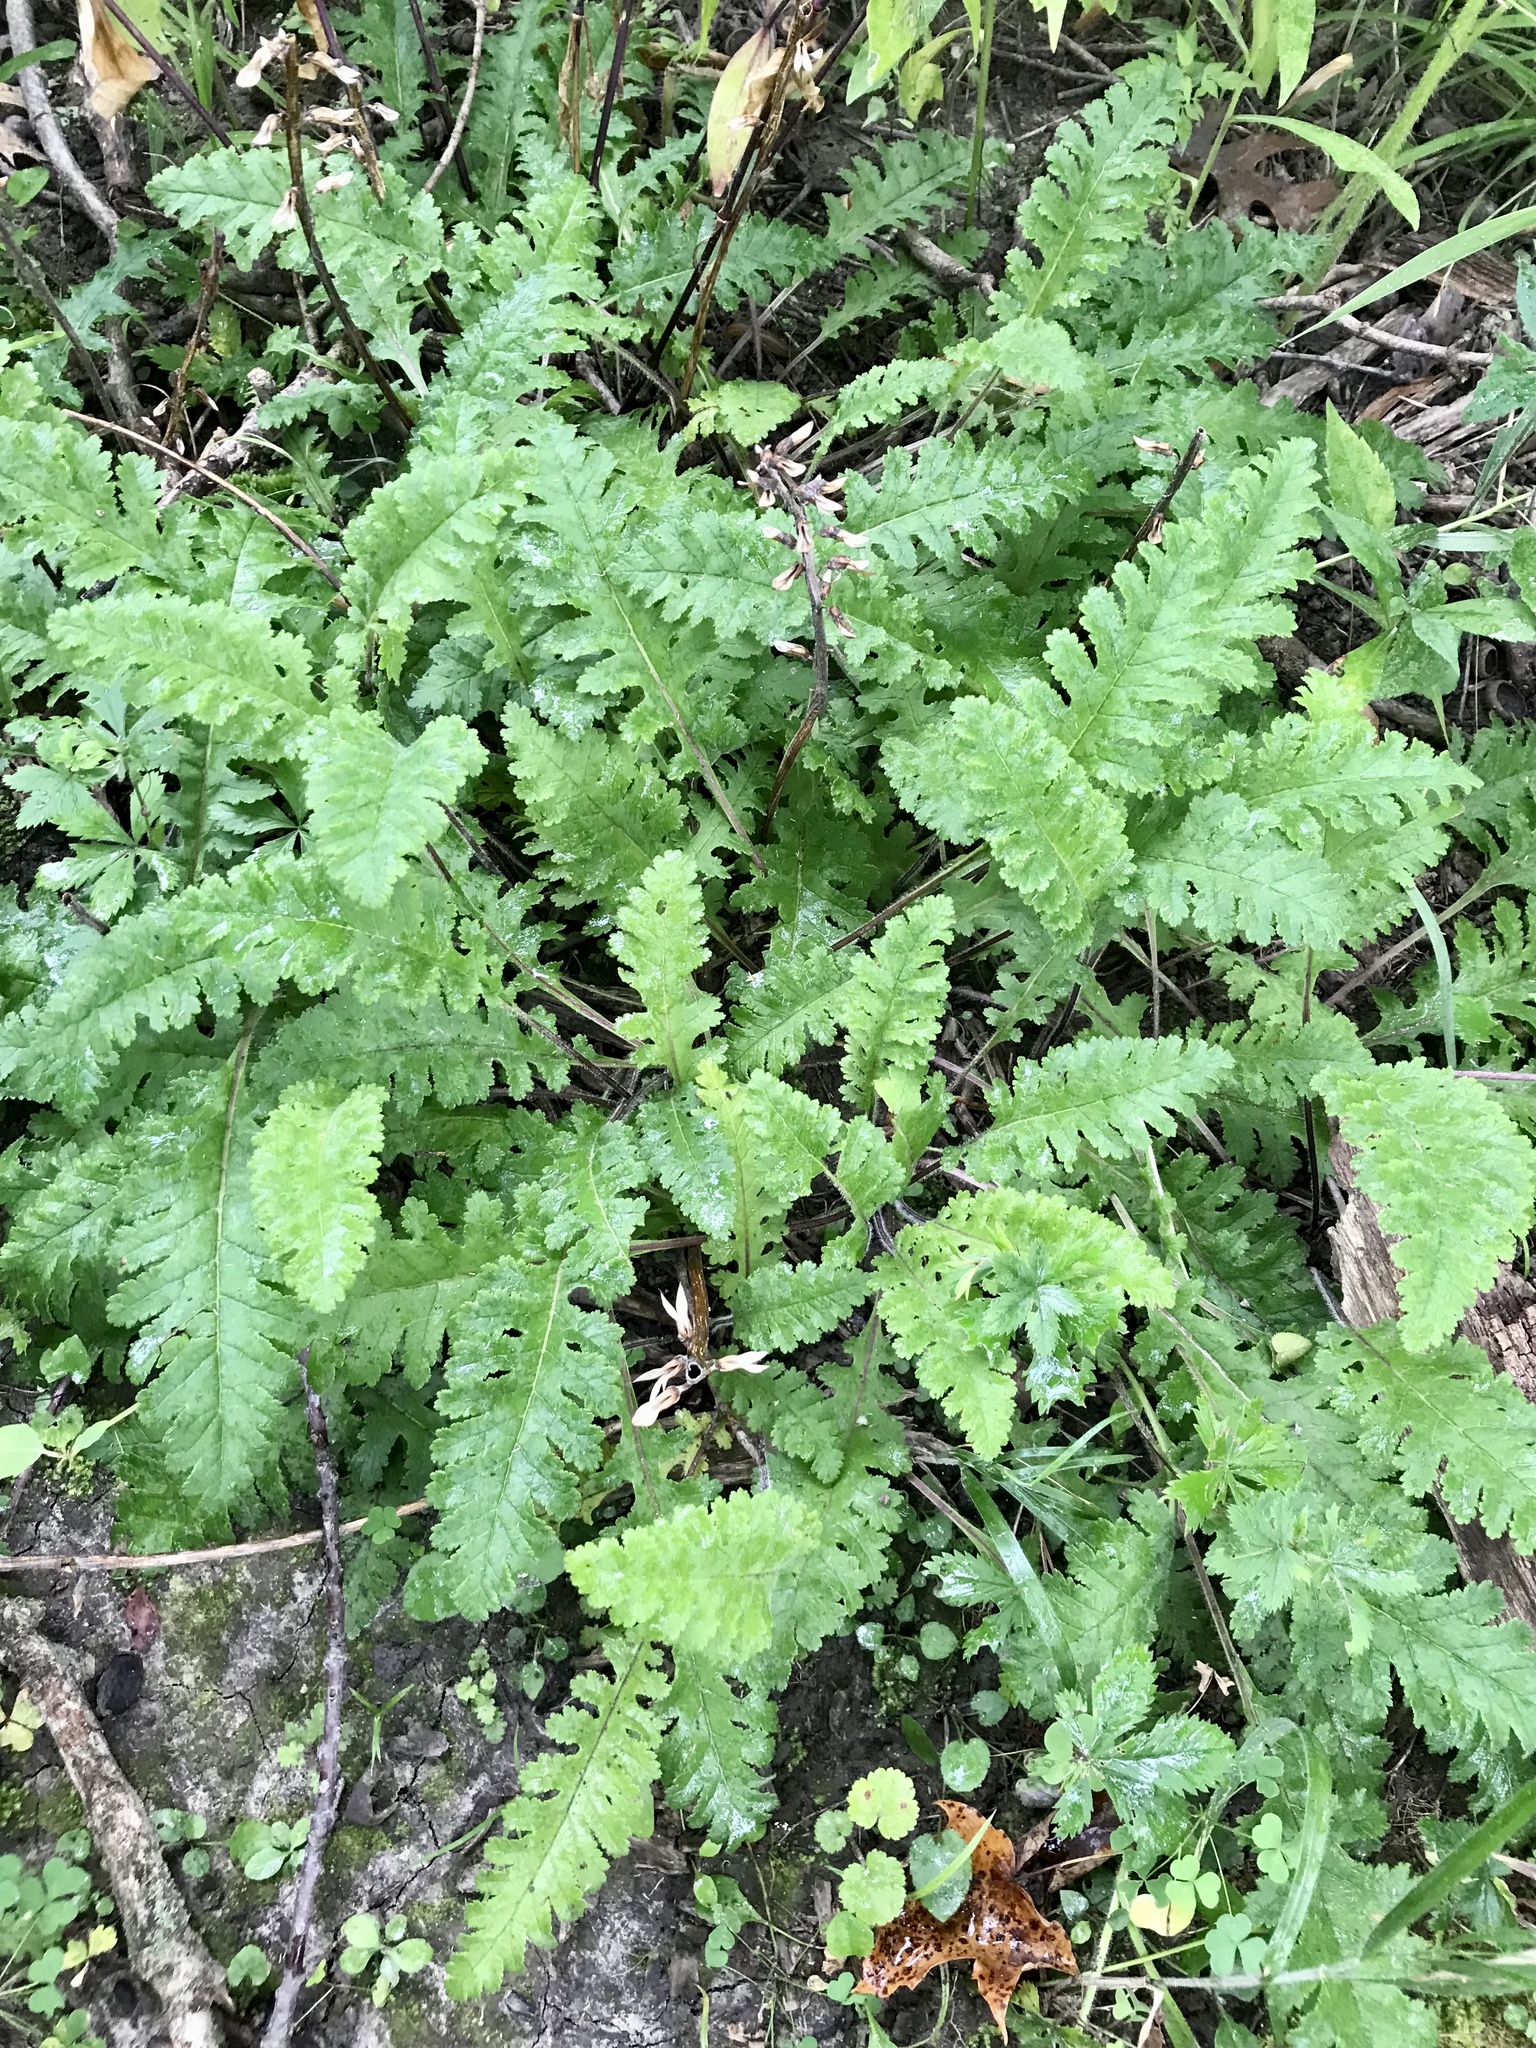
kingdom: Plantae
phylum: Tracheophyta
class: Magnoliopsida
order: Lamiales
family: Orobanchaceae
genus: Pedicularis
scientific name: Pedicularis canadensis
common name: Early lousewort
